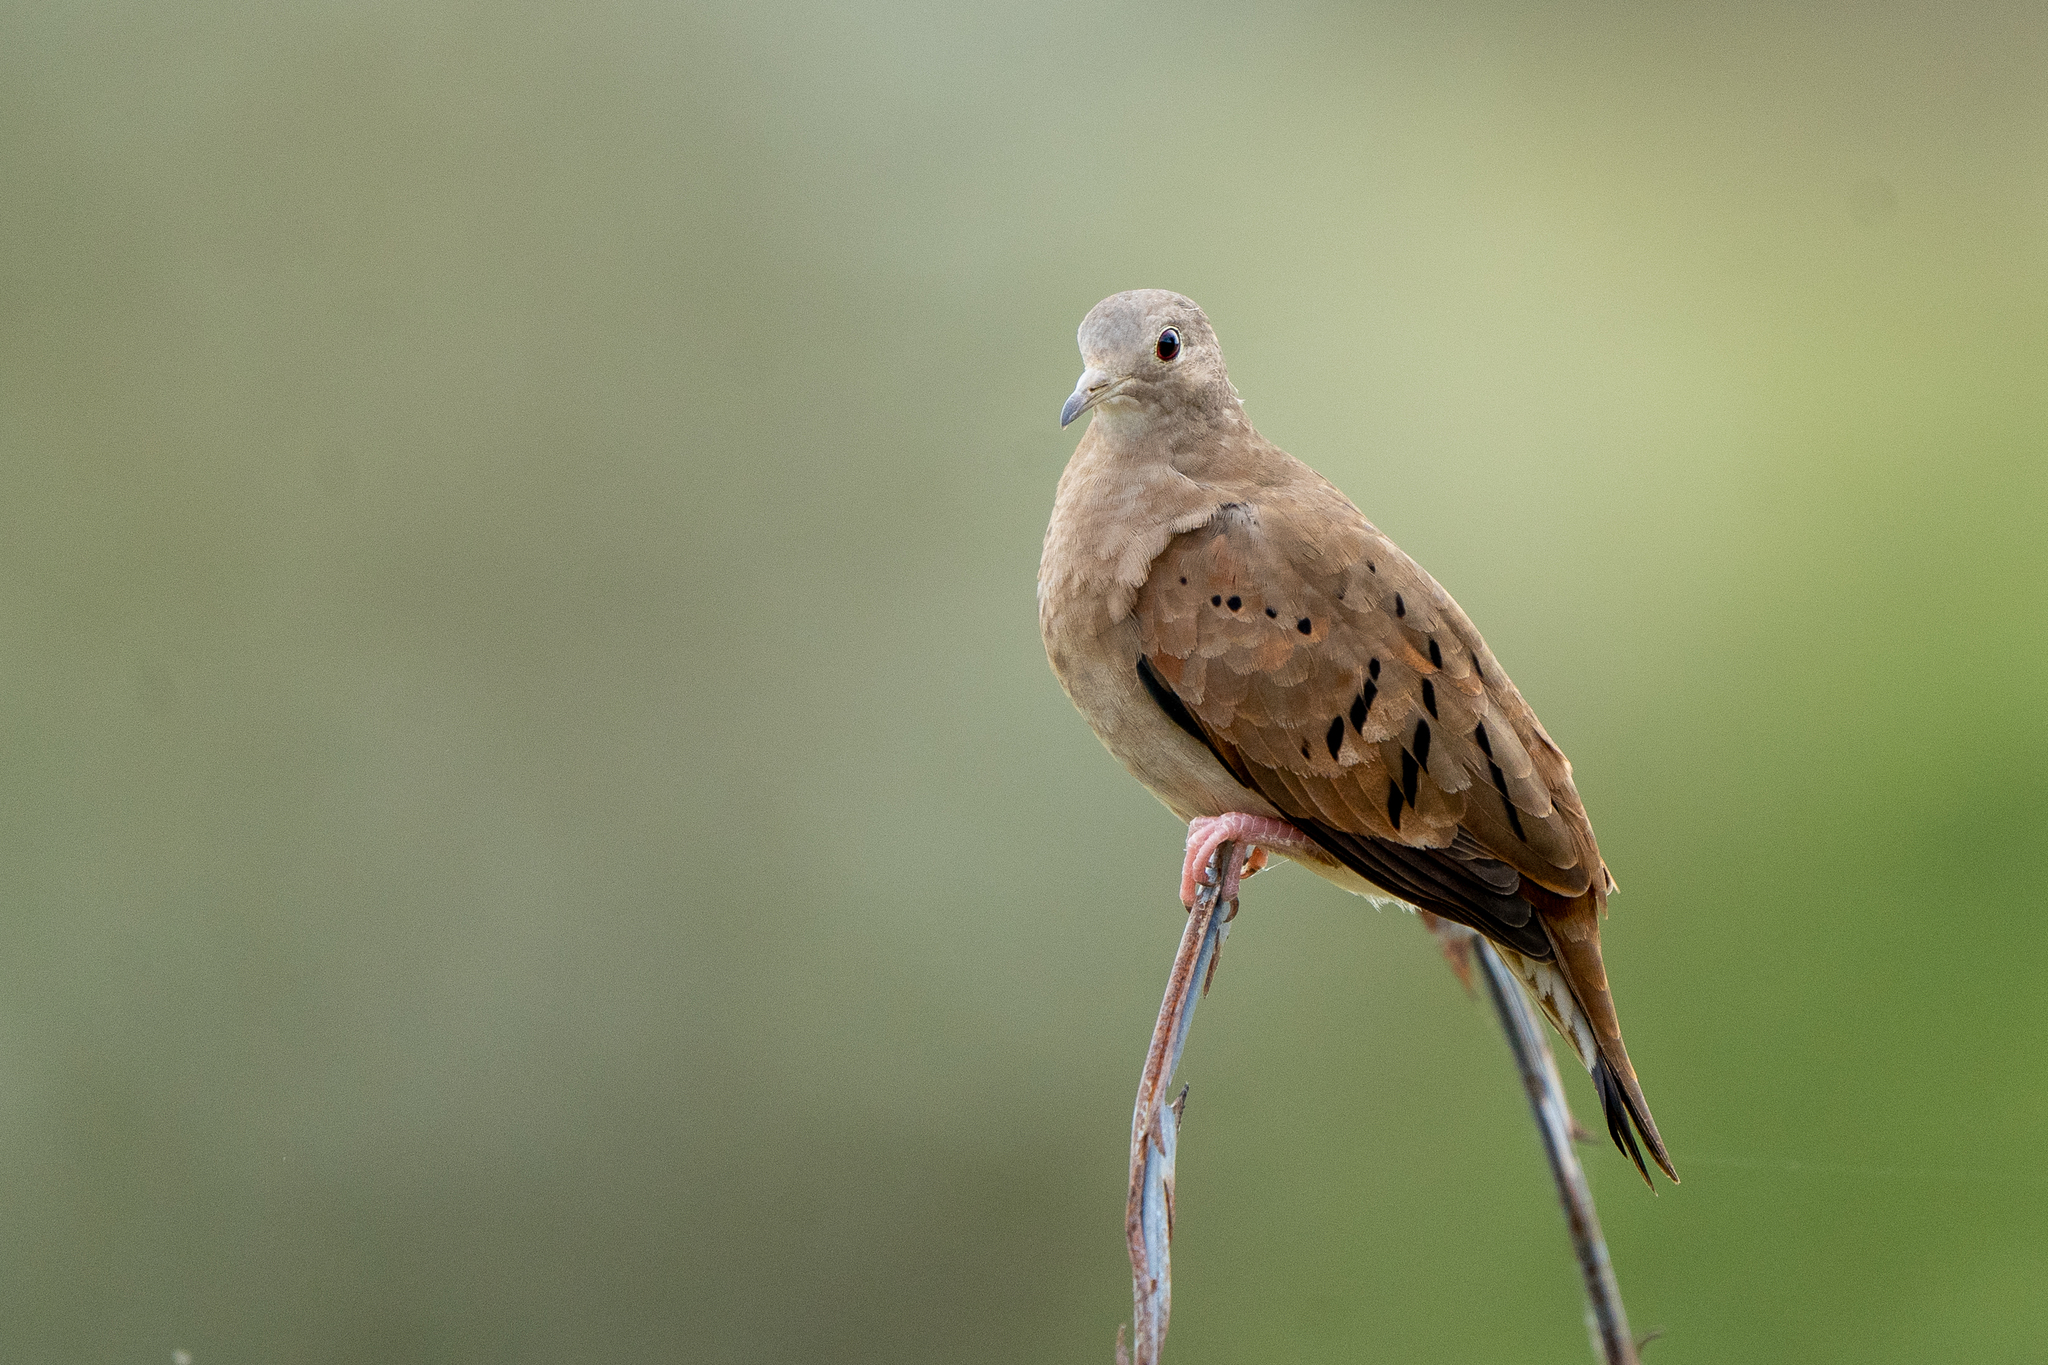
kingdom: Animalia
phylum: Chordata
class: Aves
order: Columbiformes
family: Columbidae
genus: Columbina
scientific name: Columbina talpacoti
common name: Ruddy ground dove
